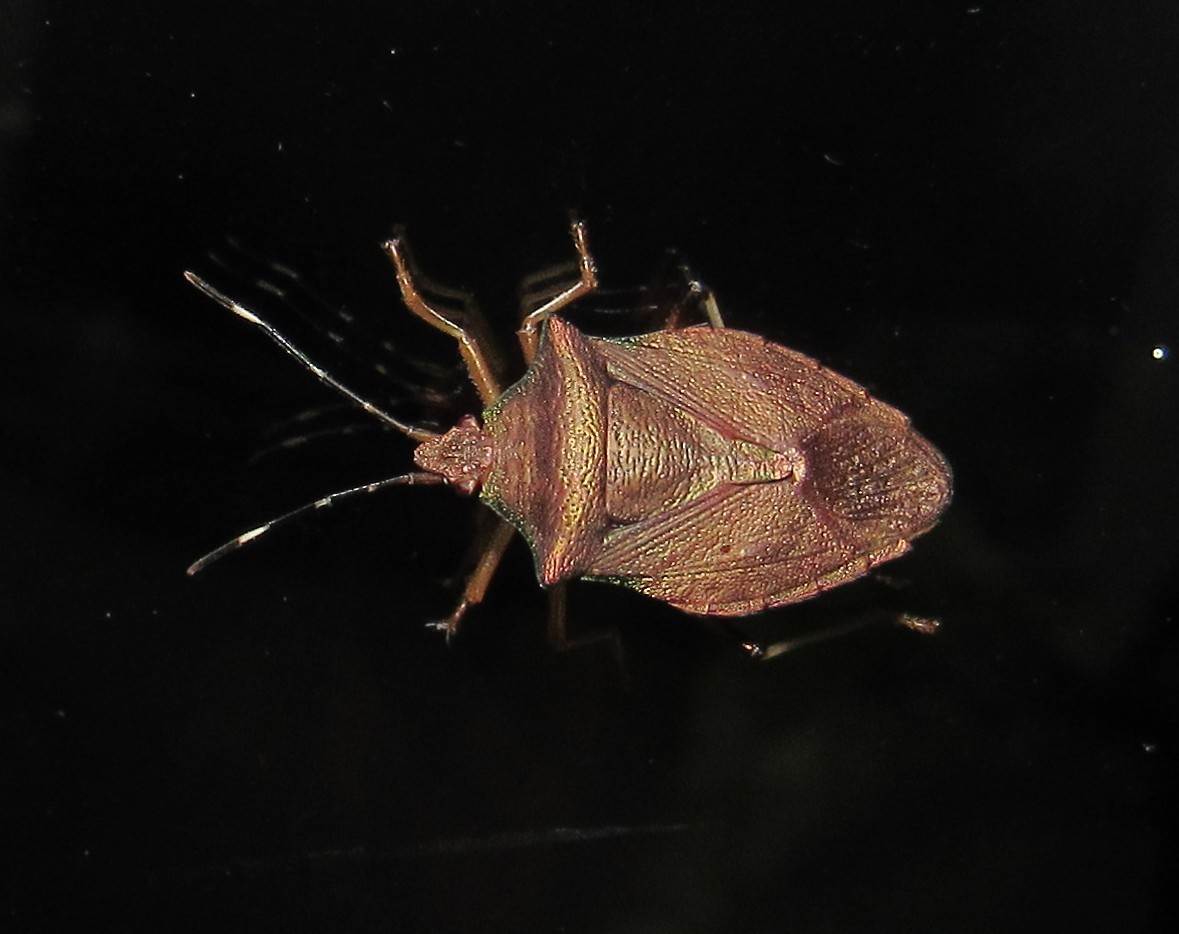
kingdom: Animalia
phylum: Arthropoda
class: Insecta
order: Hemiptera
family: Pentatomidae
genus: Myota
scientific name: Myota aerea
